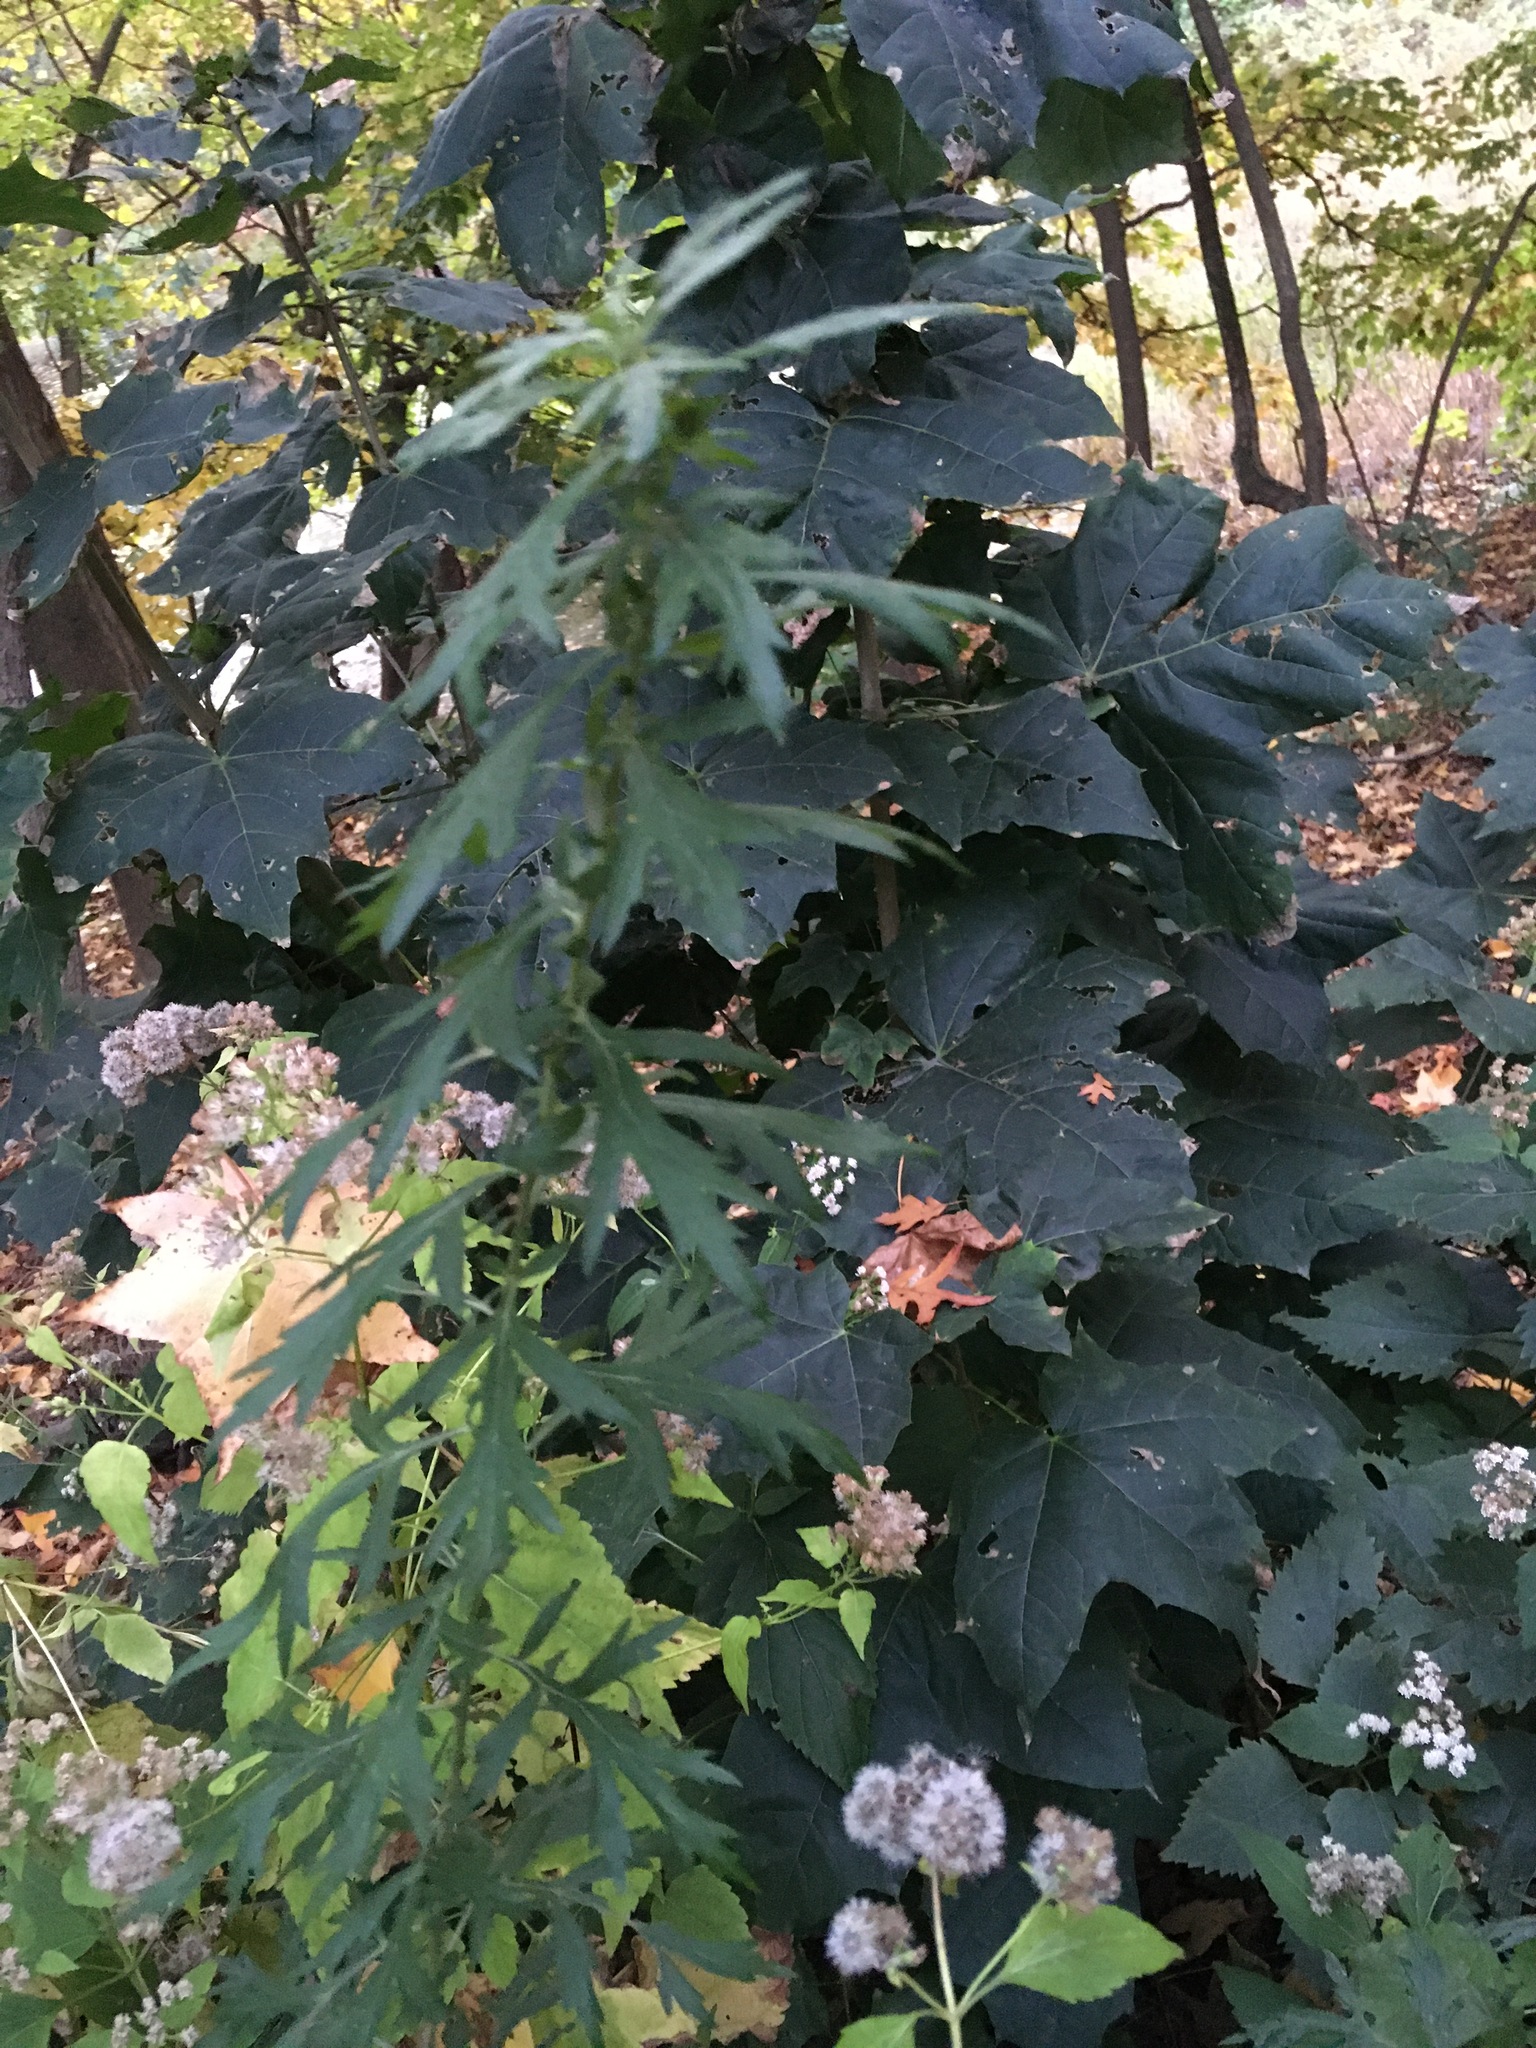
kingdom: Plantae
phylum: Tracheophyta
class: Magnoliopsida
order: Asterales
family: Asteraceae
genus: Artemisia
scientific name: Artemisia vulgaris
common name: Mugwort
